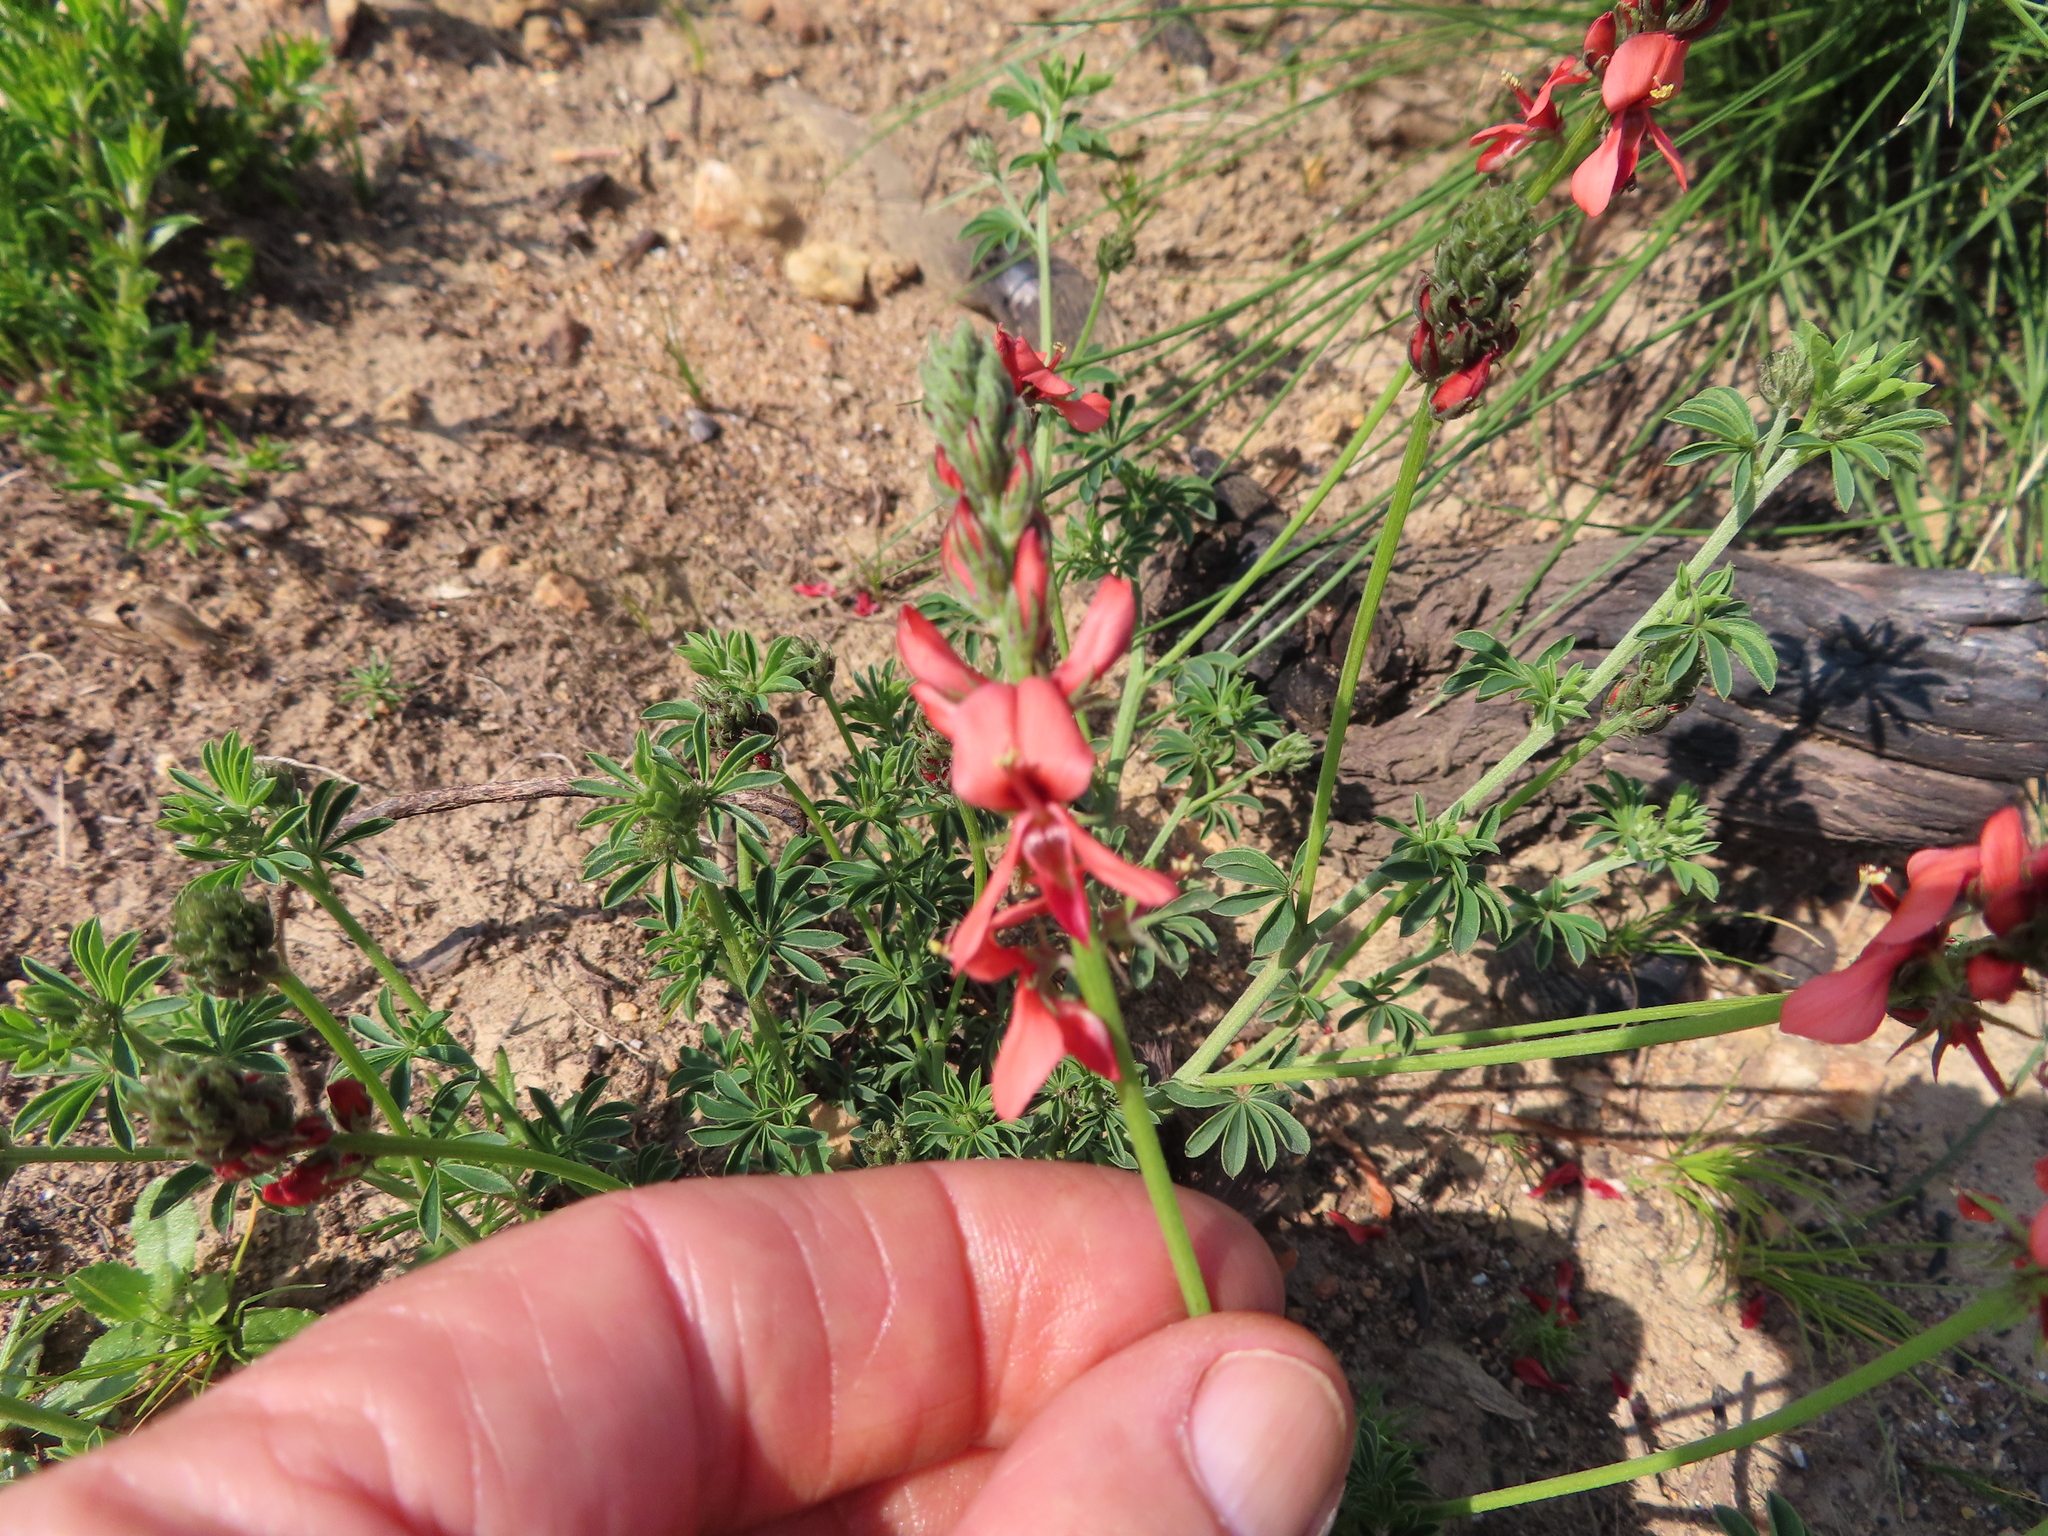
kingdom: Plantae
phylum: Tracheophyta
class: Magnoliopsida
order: Fabales
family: Fabaceae
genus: Indigofera
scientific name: Indigofera digitata
